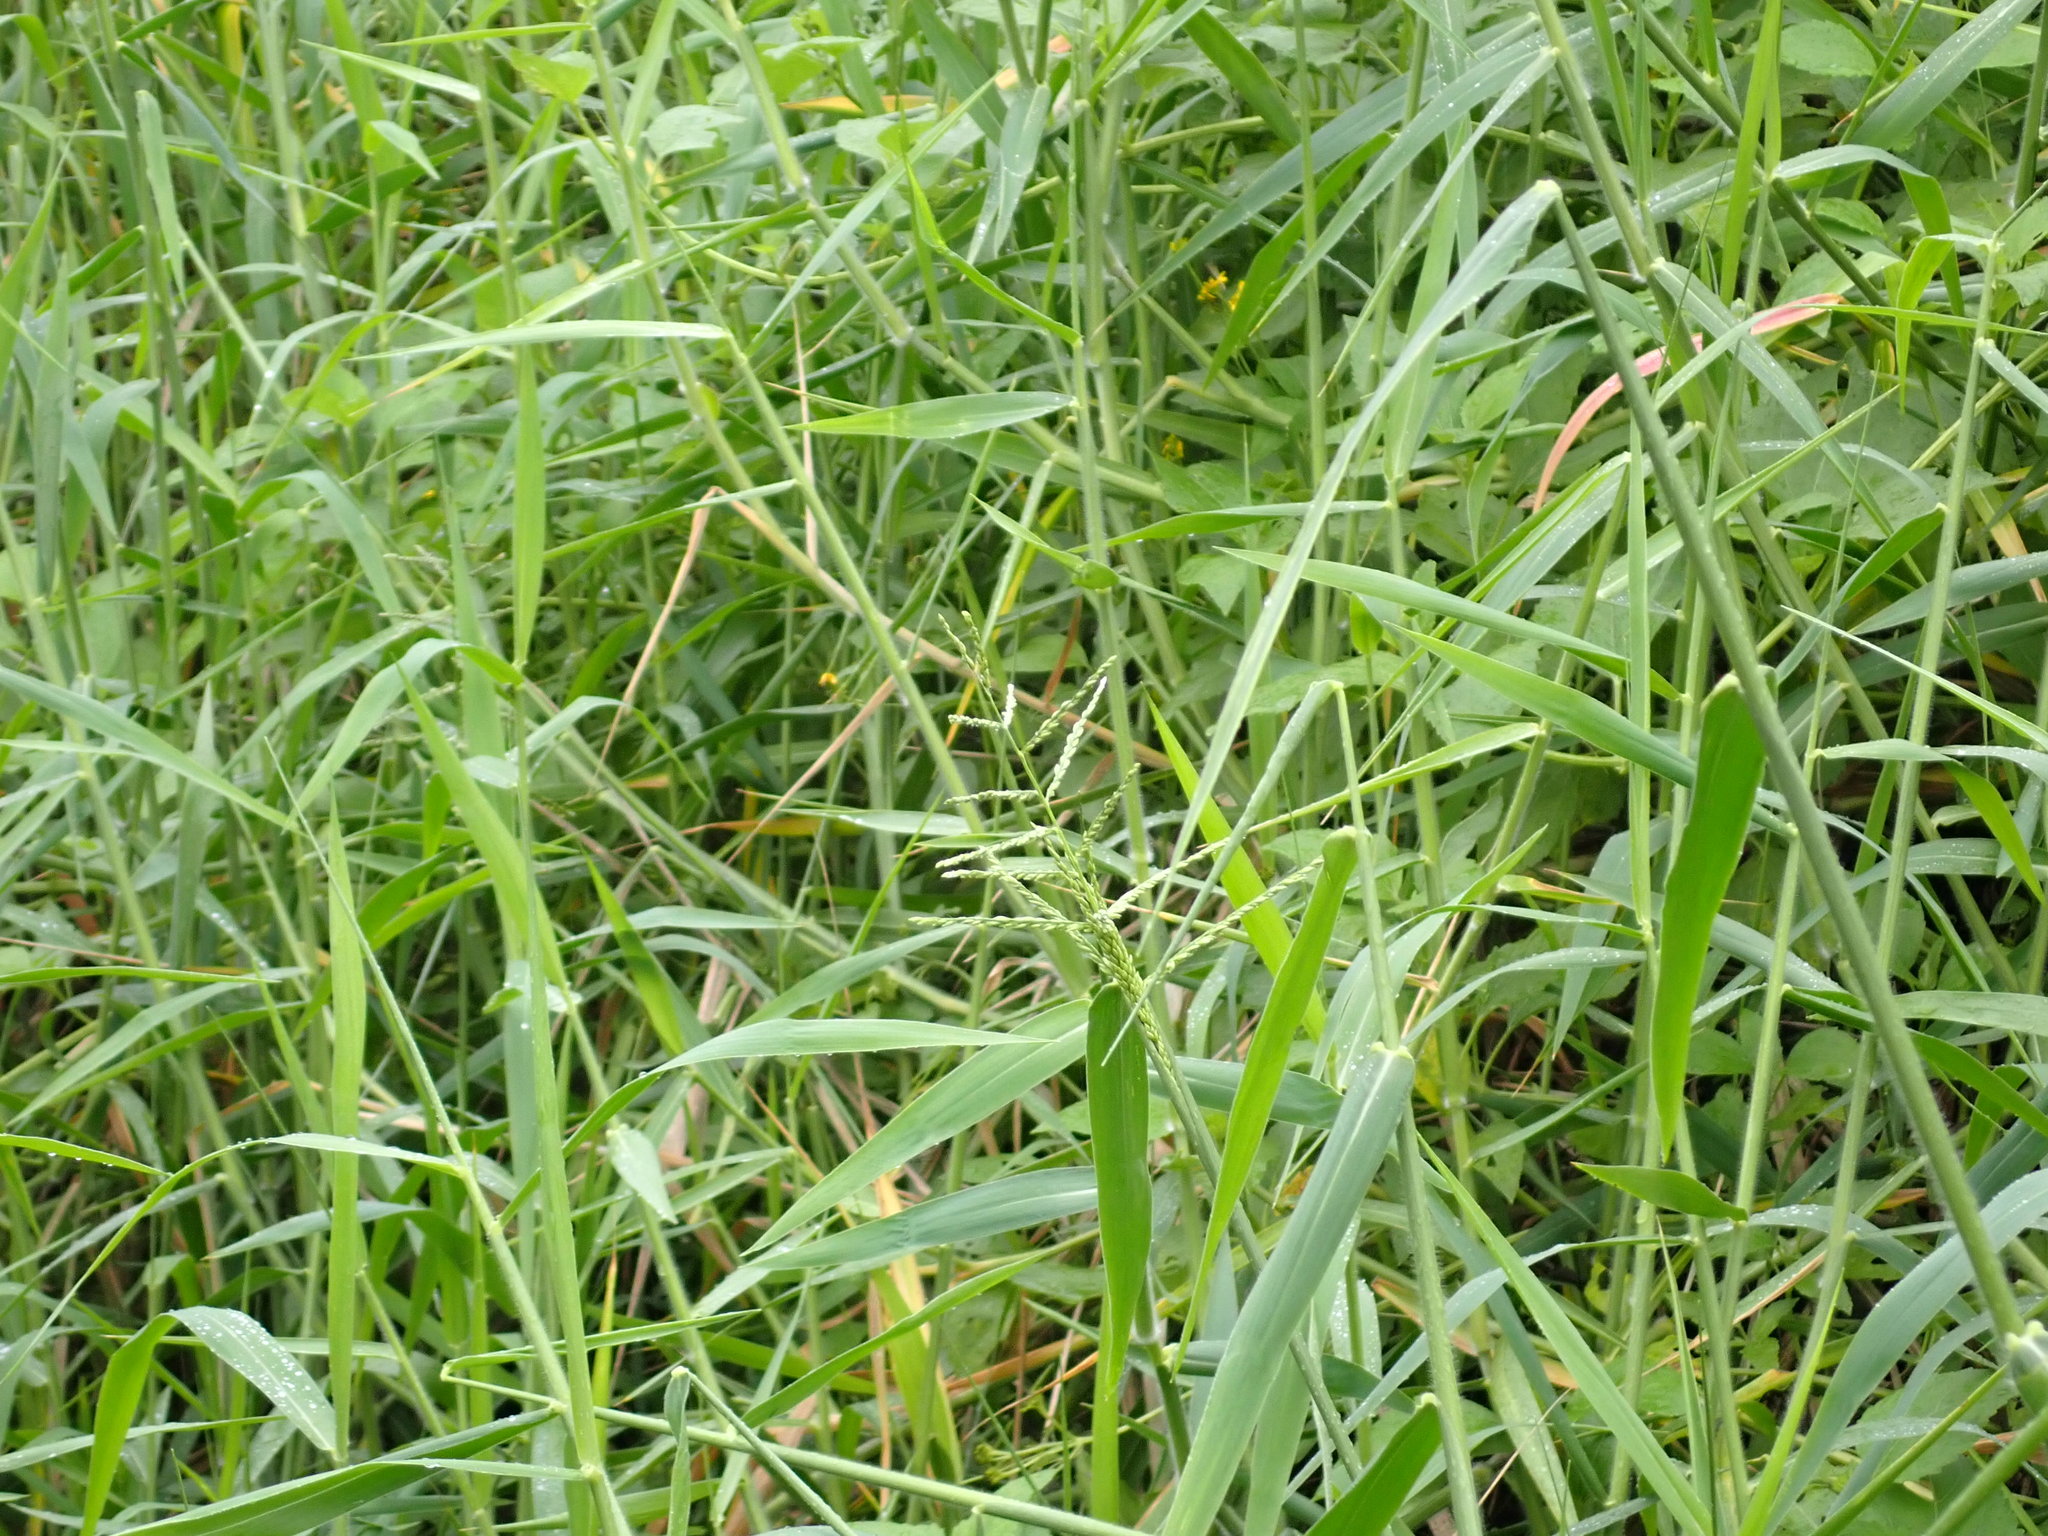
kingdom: Plantae
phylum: Tracheophyta
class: Liliopsida
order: Poales
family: Poaceae
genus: Urochloa
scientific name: Urochloa mutica
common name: Para grass
